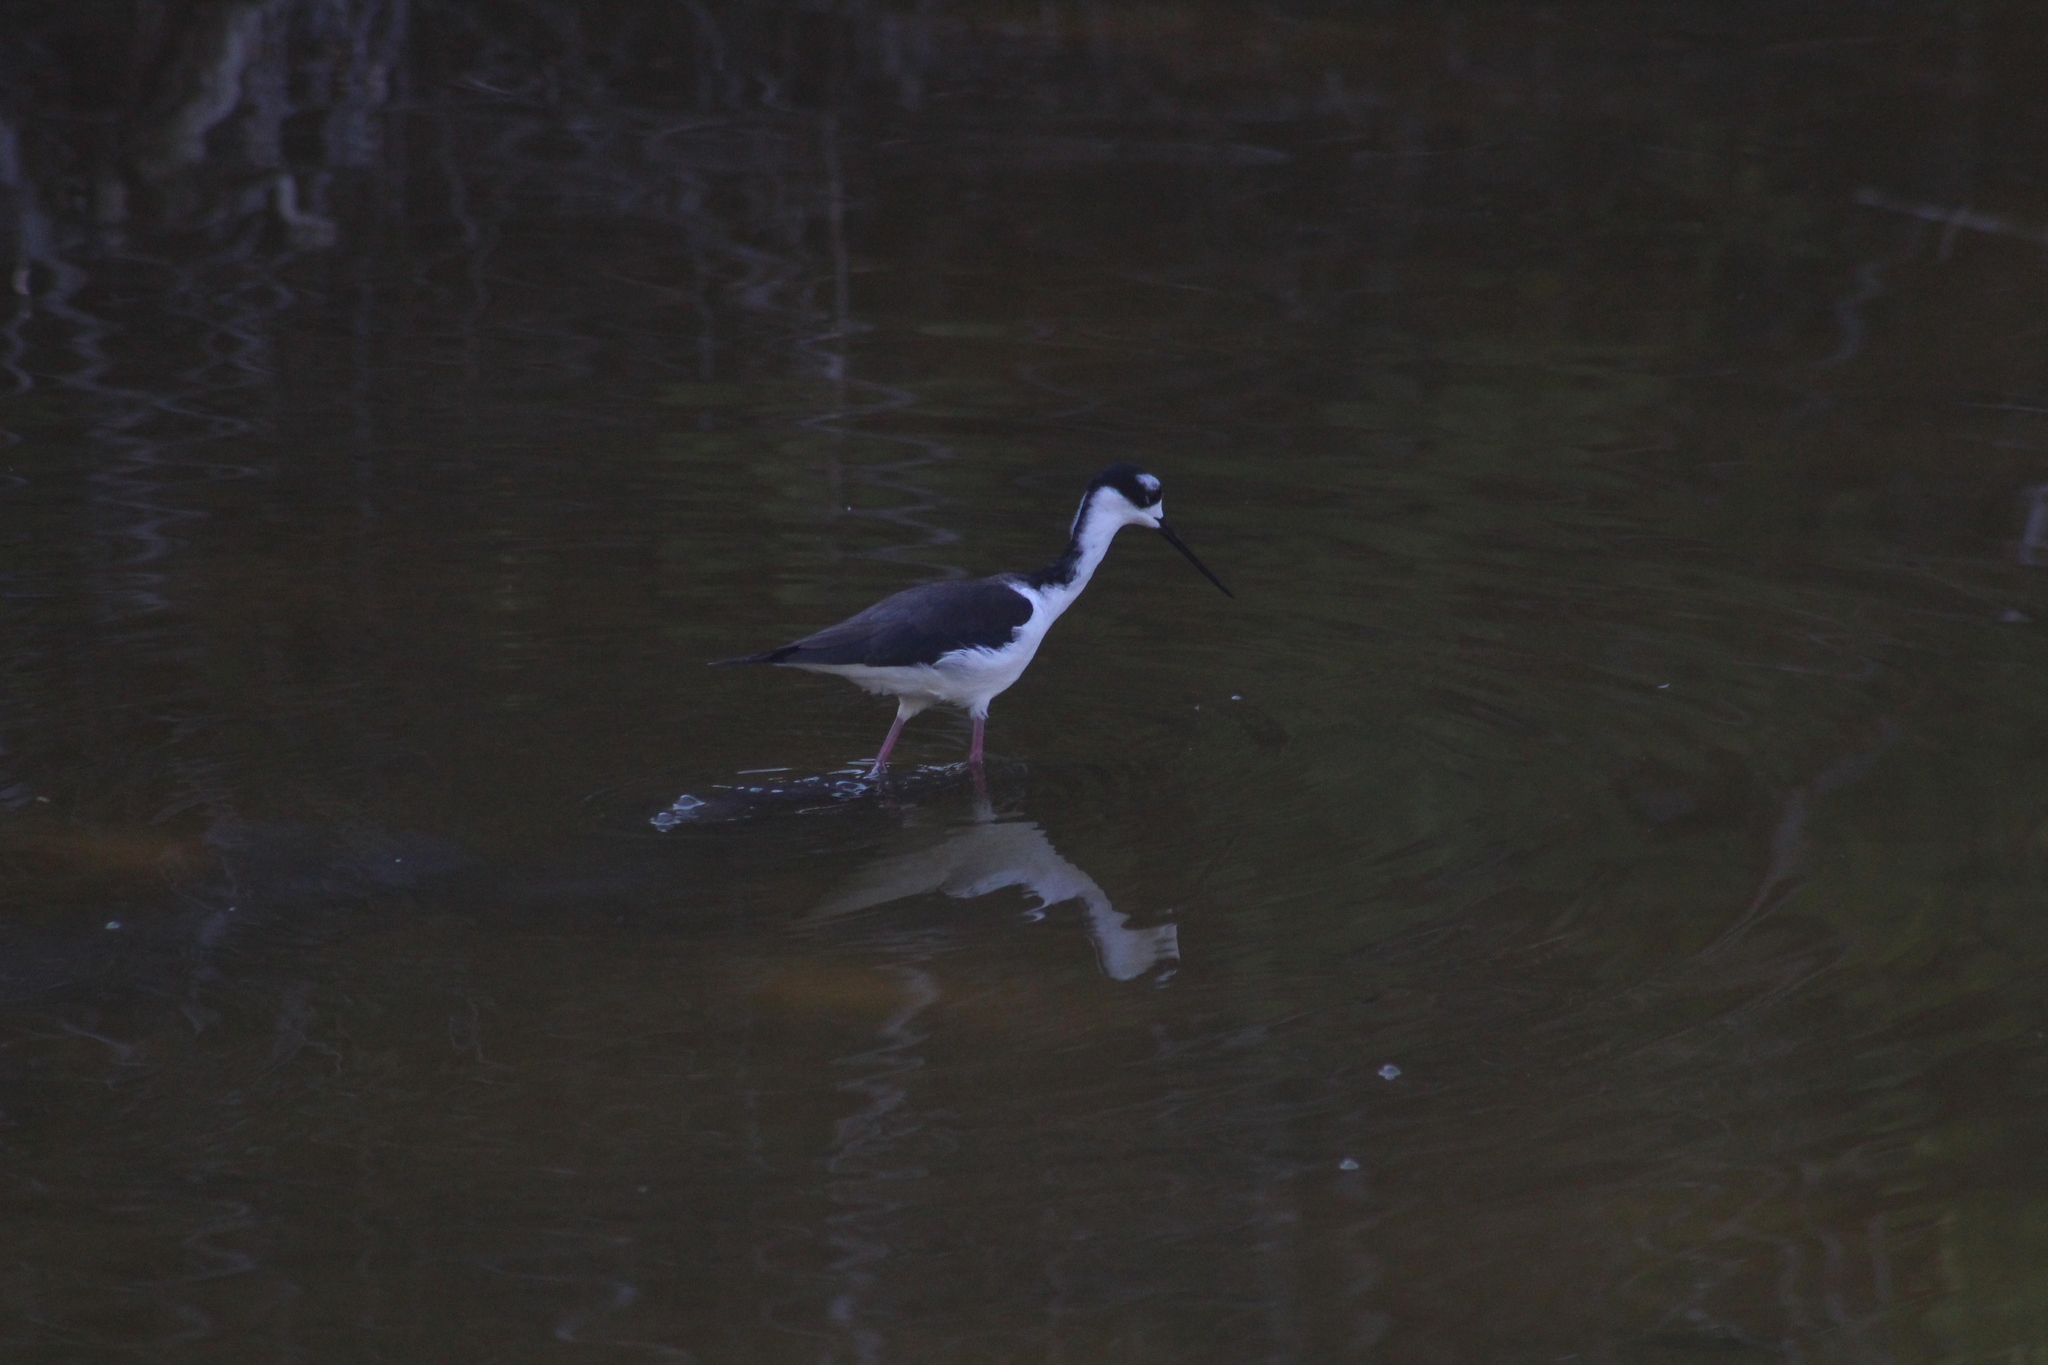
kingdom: Animalia
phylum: Chordata
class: Aves
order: Charadriiformes
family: Recurvirostridae
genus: Himantopus
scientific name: Himantopus mexicanus
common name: Black-necked stilt
